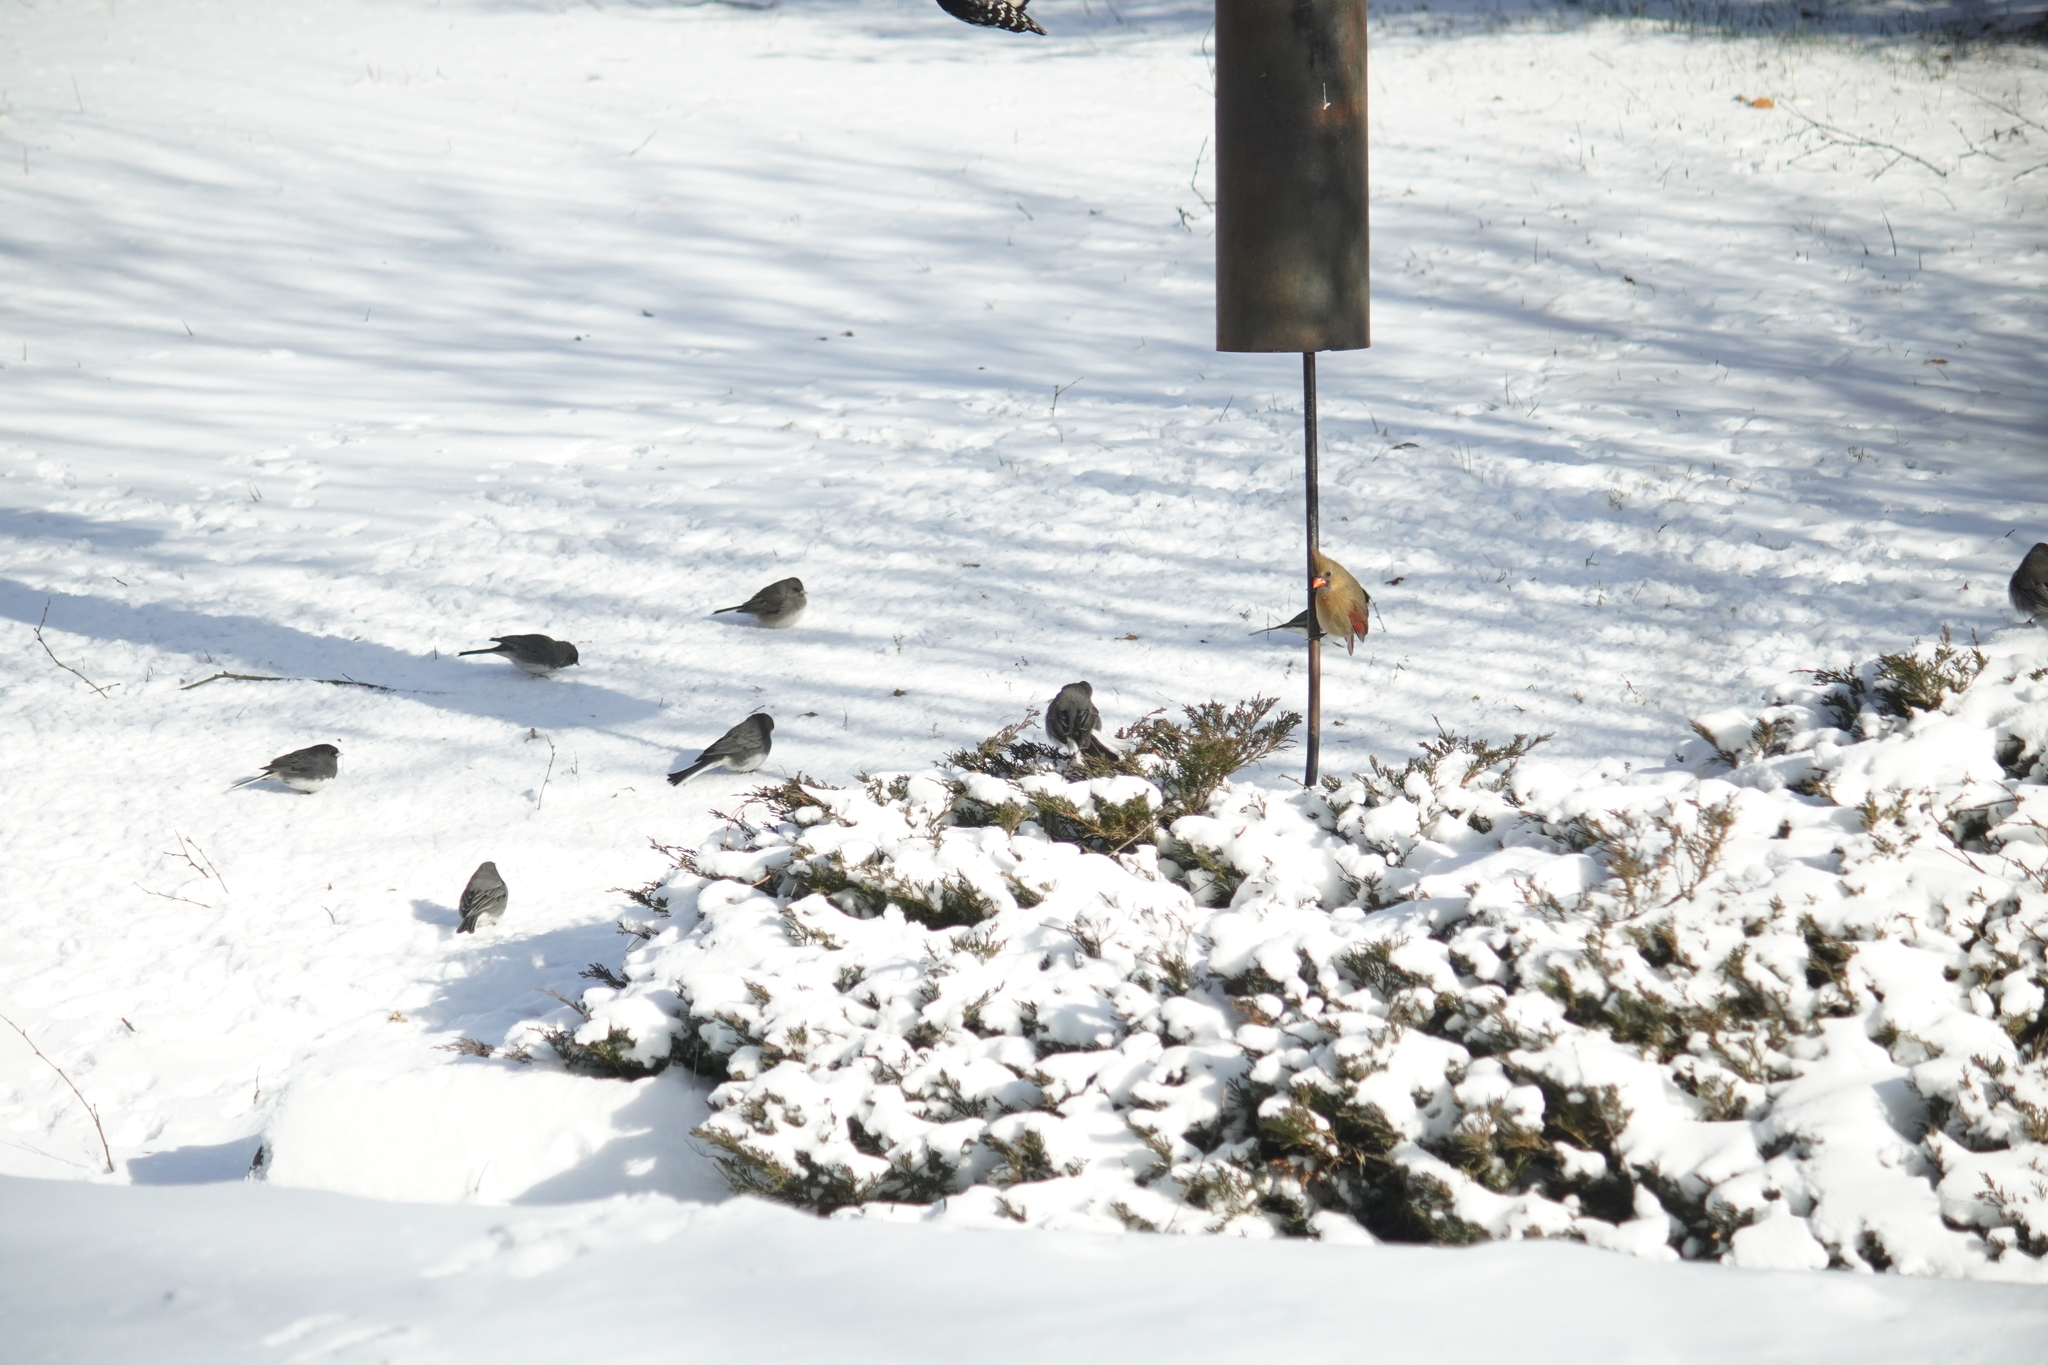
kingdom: Animalia
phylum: Chordata
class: Aves
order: Passeriformes
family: Cardinalidae
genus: Cardinalis
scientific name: Cardinalis cardinalis
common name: Northern cardinal
